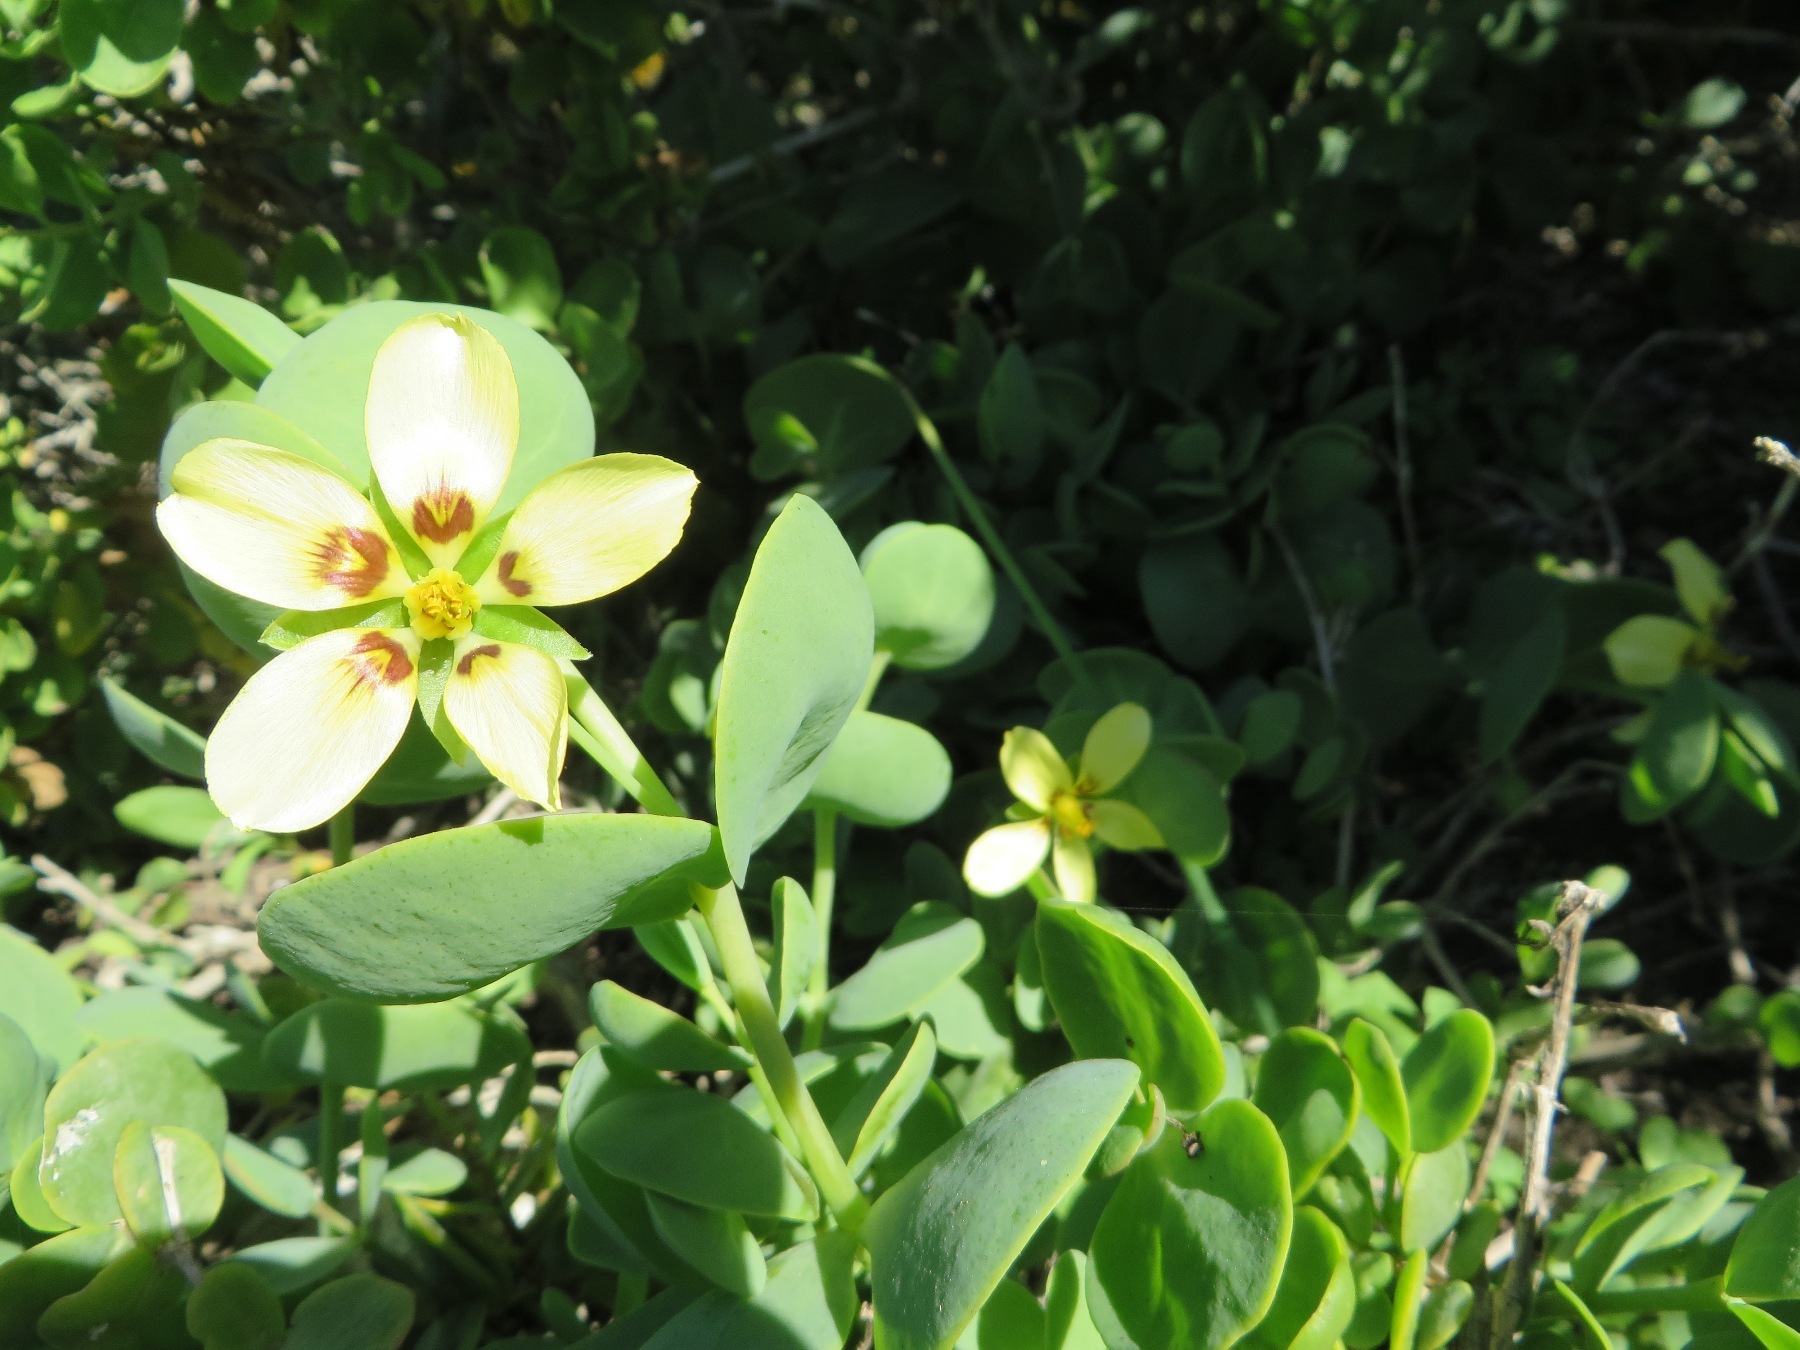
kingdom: Plantae
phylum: Tracheophyta
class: Magnoliopsida
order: Zygophyllales
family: Zygophyllaceae
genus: Roepera
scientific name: Roepera cordifolia
